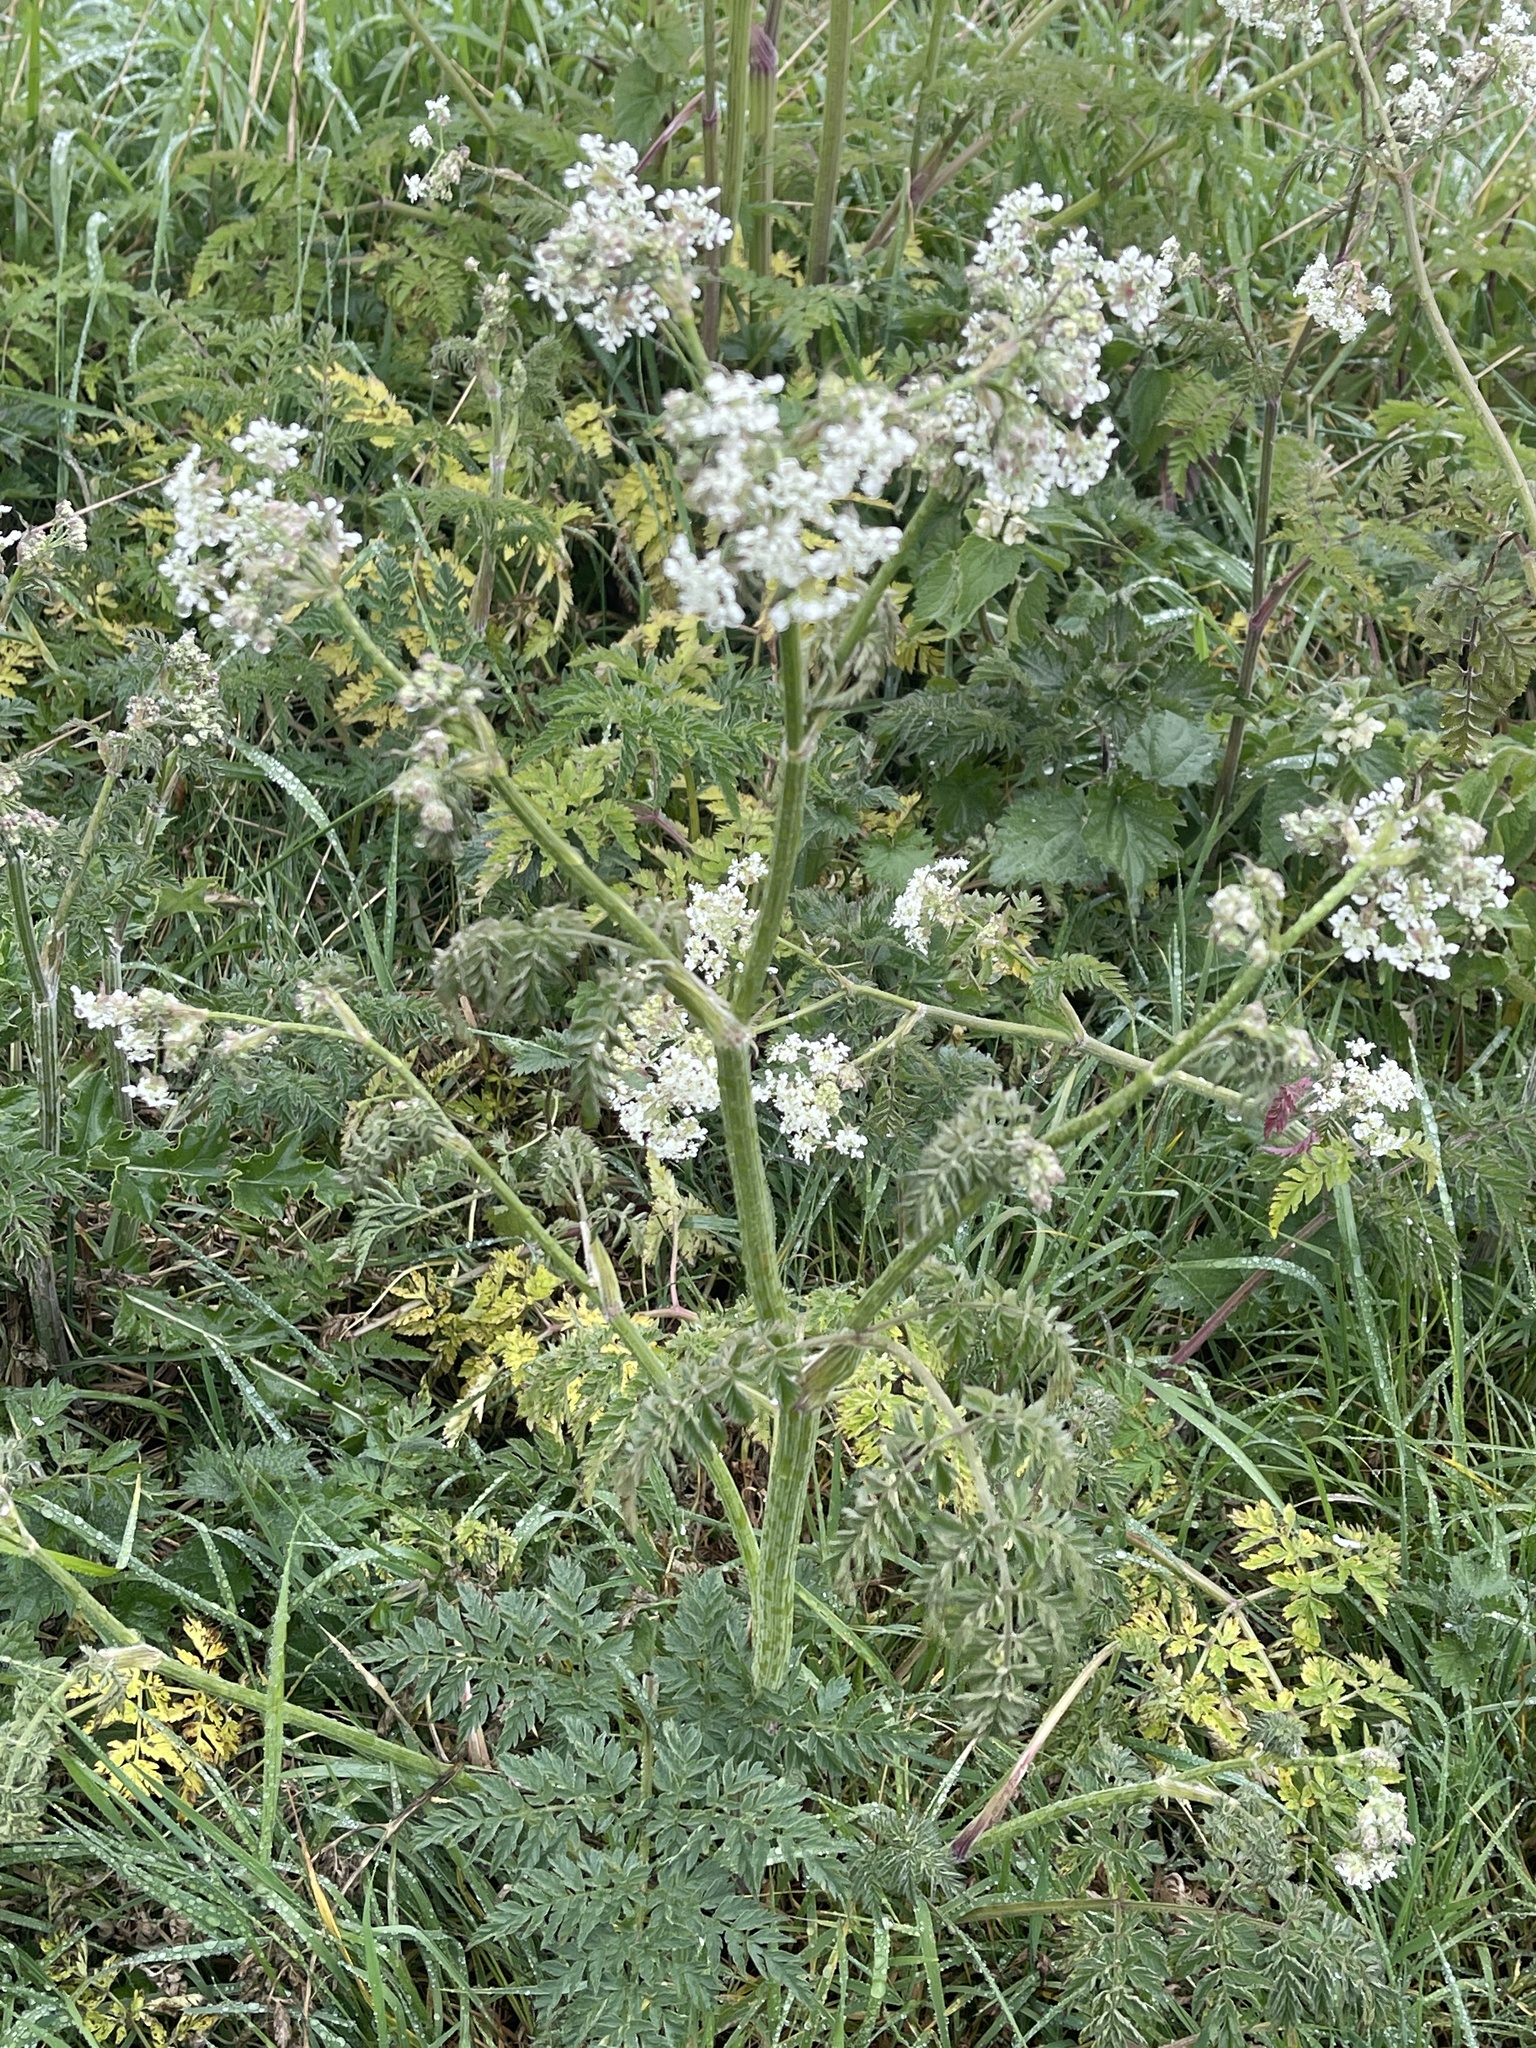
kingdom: Plantae
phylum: Tracheophyta
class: Magnoliopsida
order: Apiales
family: Apiaceae
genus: Anthriscus
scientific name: Anthriscus sylvestris
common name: Cow parsley
